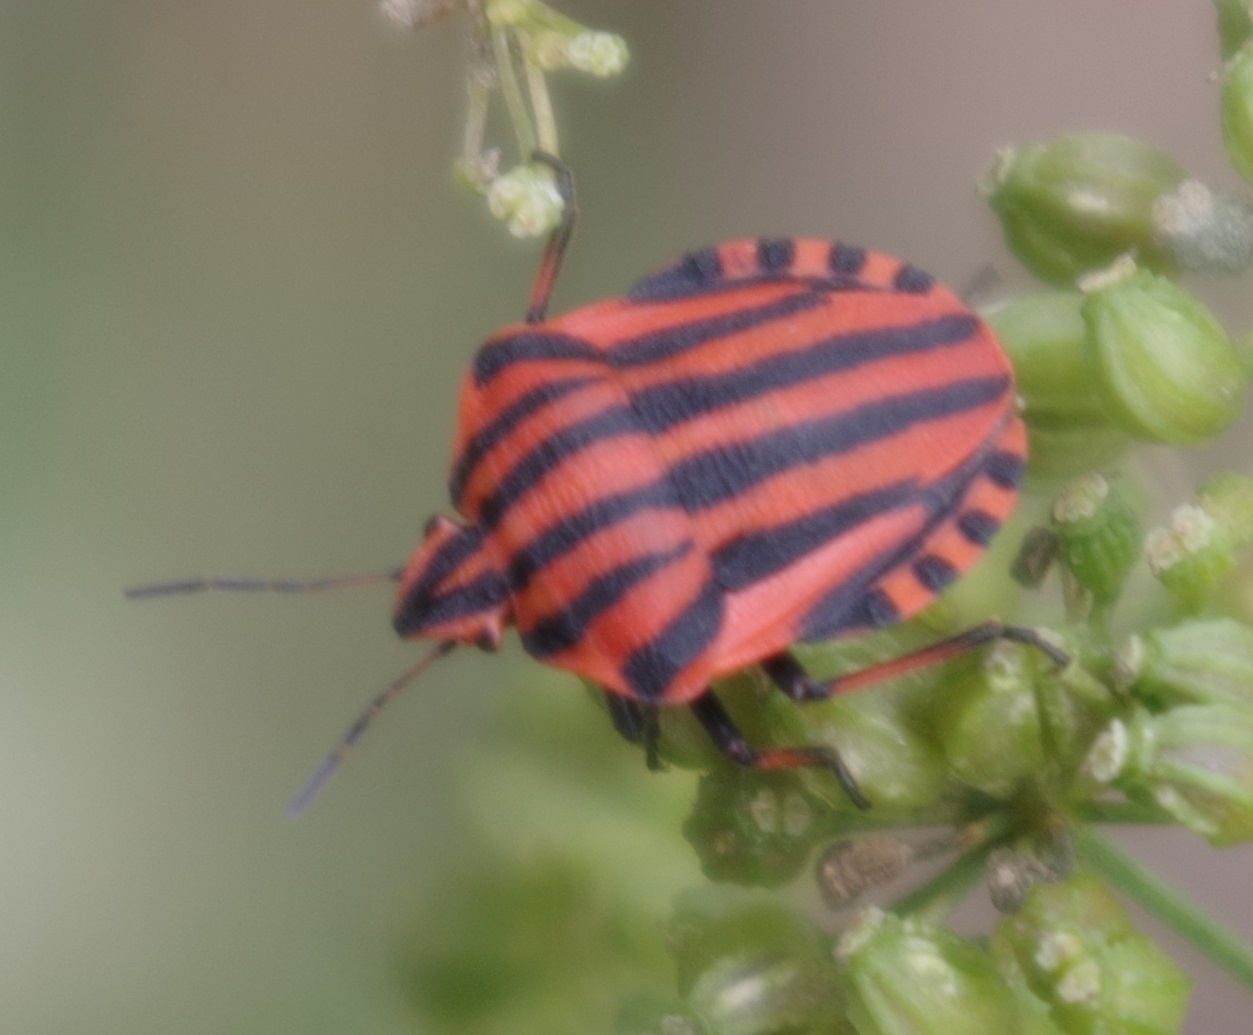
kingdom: Animalia
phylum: Arthropoda
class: Insecta
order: Hemiptera
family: Pentatomidae
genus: Graphosoma
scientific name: Graphosoma italicum
